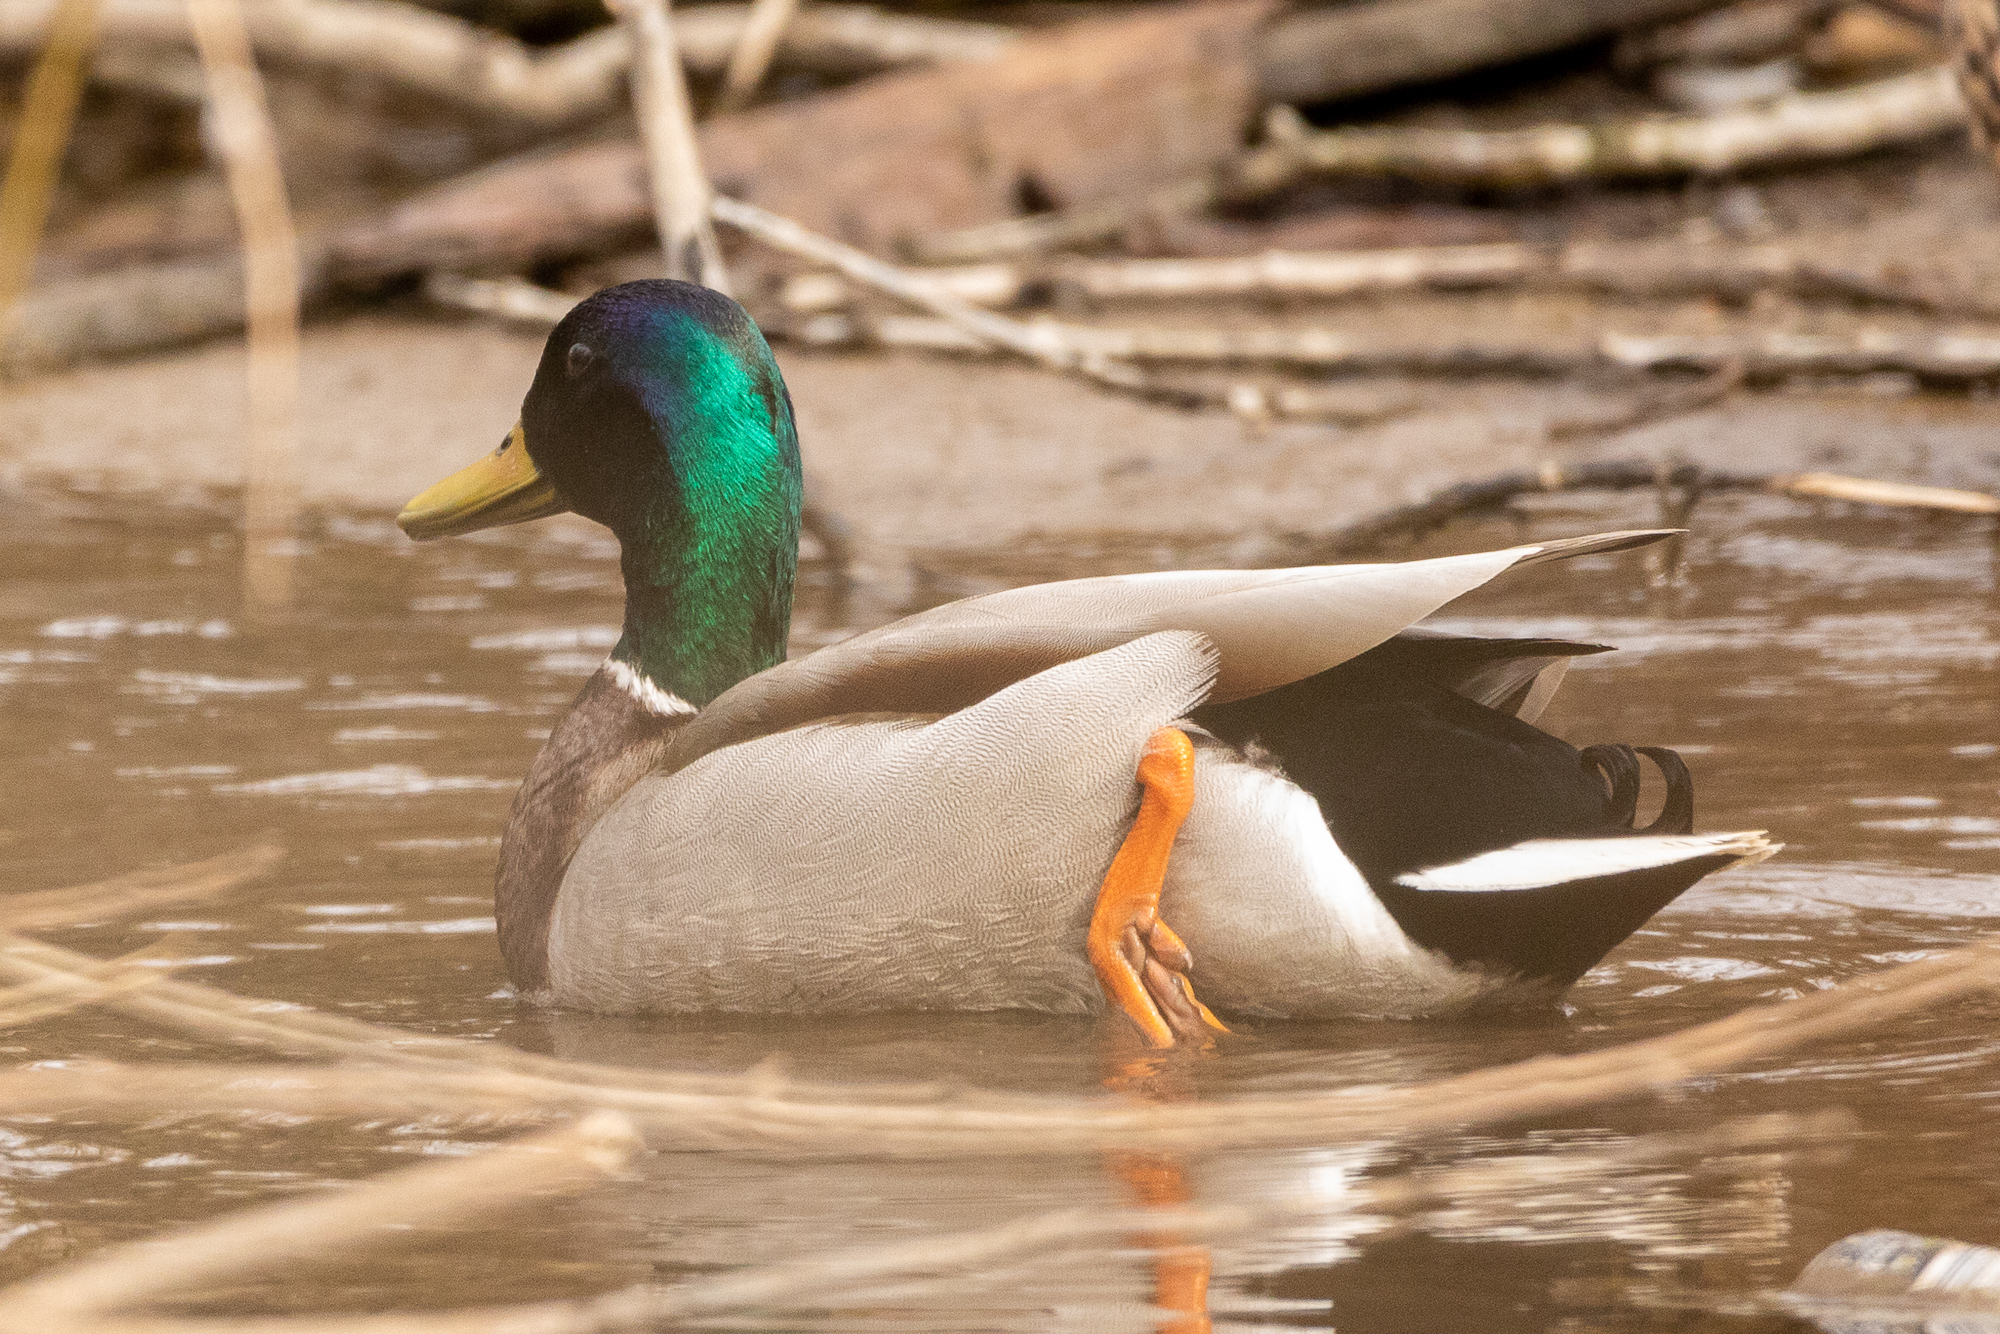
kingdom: Animalia
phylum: Chordata
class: Aves
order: Anseriformes
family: Anatidae
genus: Anas
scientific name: Anas platyrhynchos
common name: Mallard
